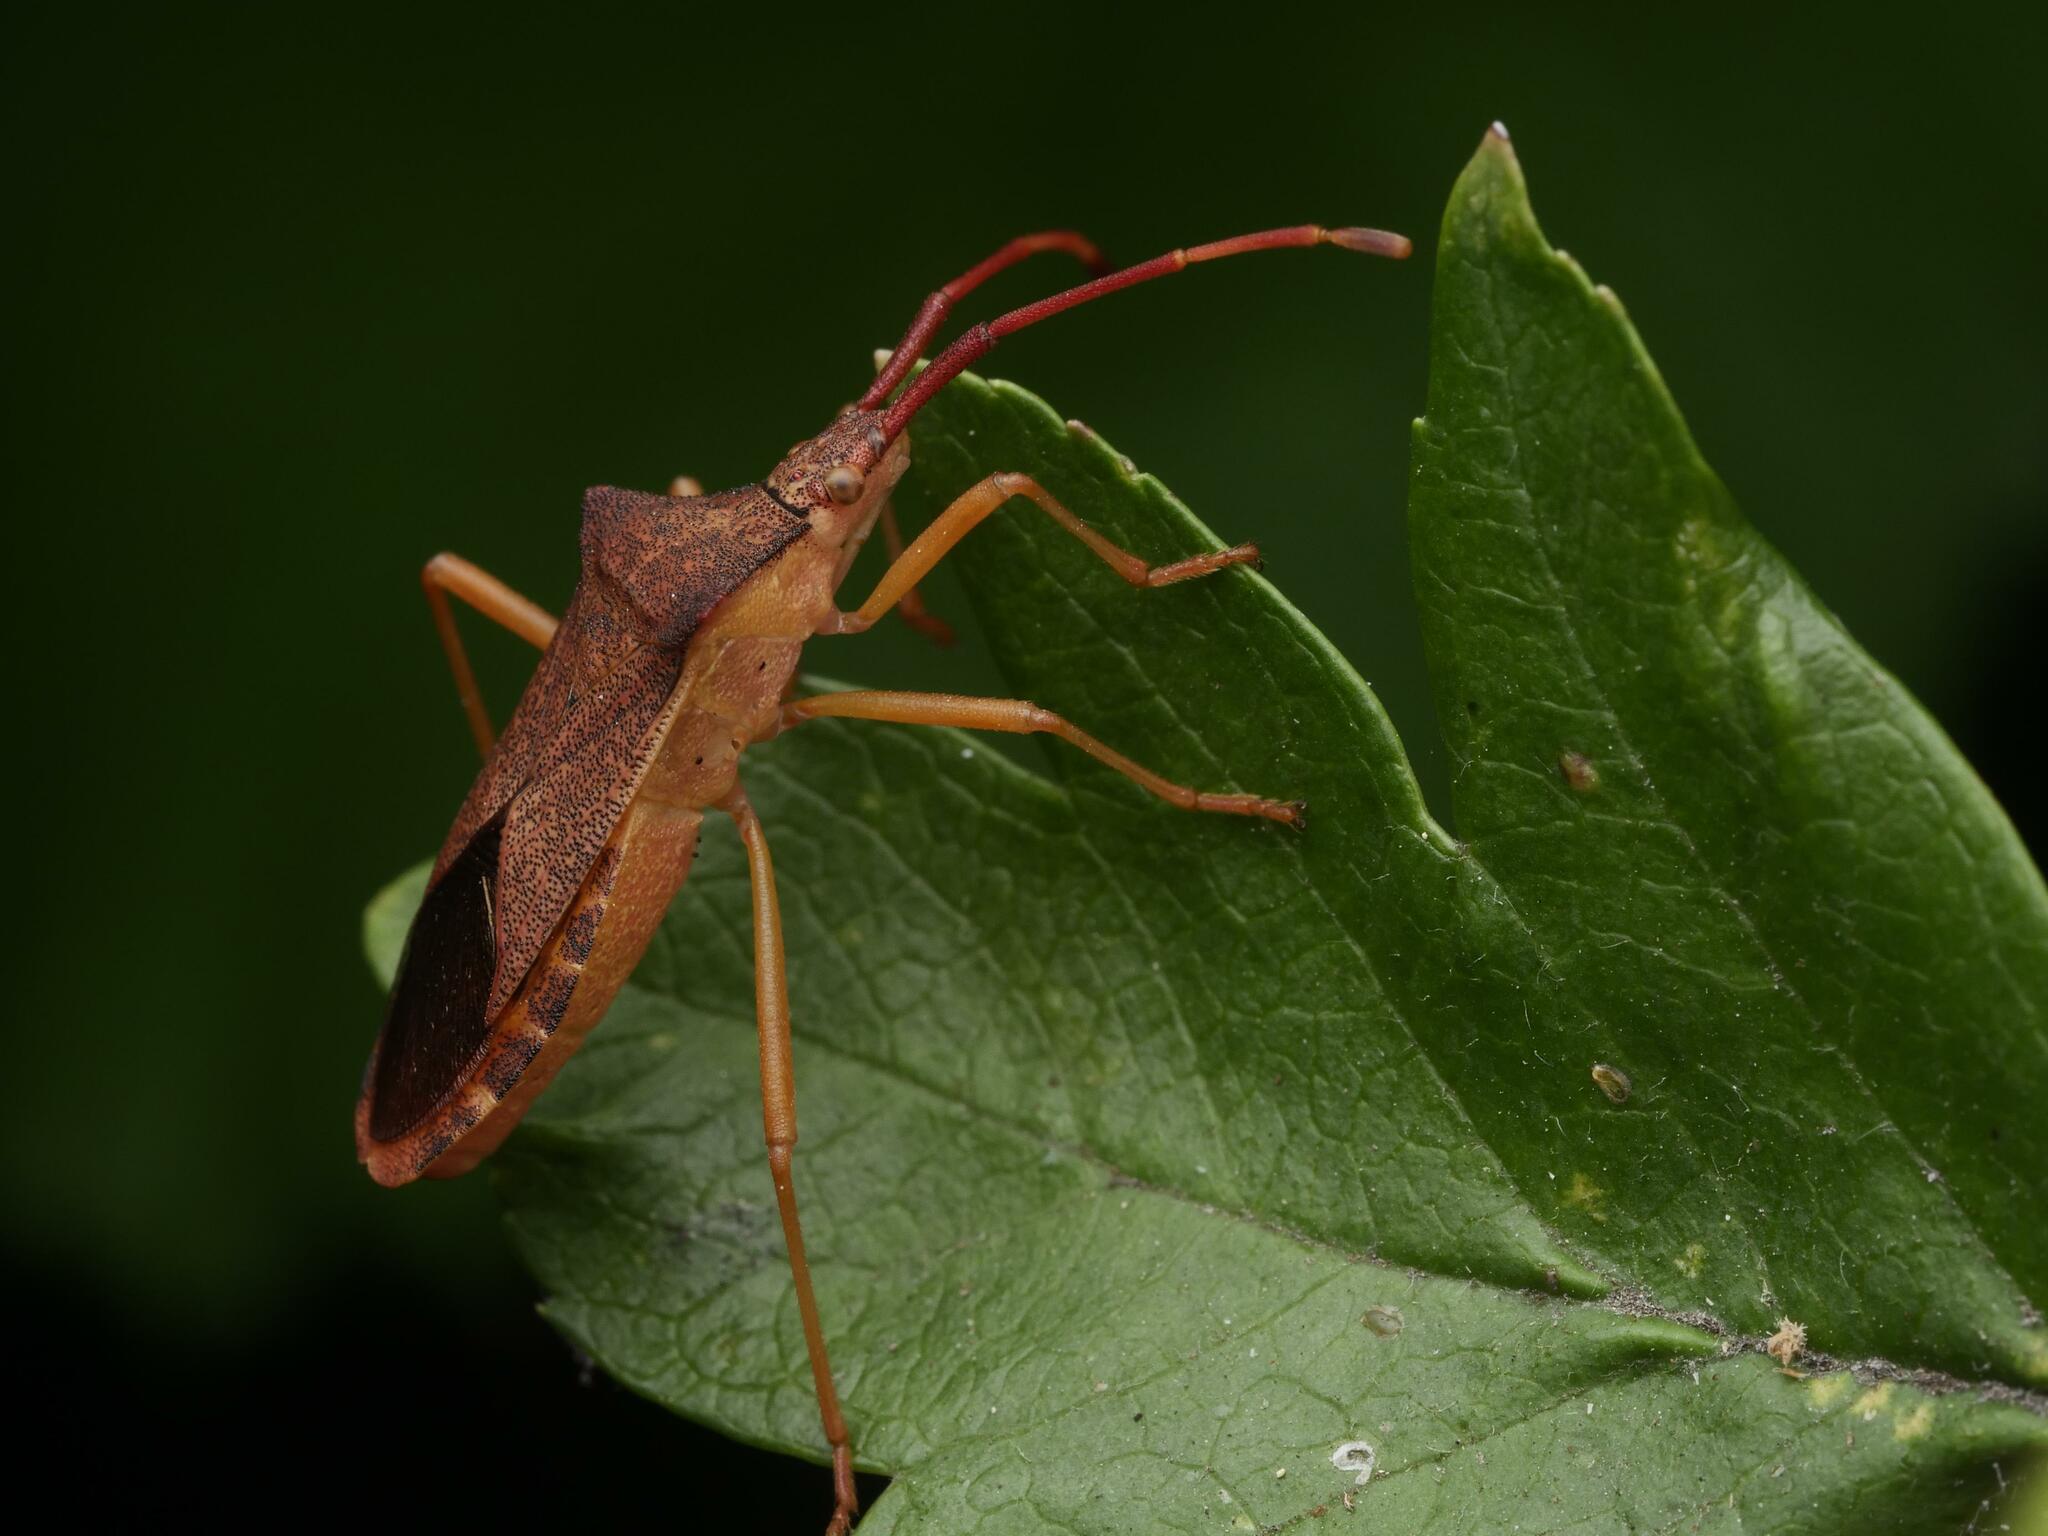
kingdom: Animalia
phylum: Arthropoda
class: Insecta
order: Hemiptera
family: Coreidae
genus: Gonocerus
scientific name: Gonocerus acuteangulatus
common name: Box bug
